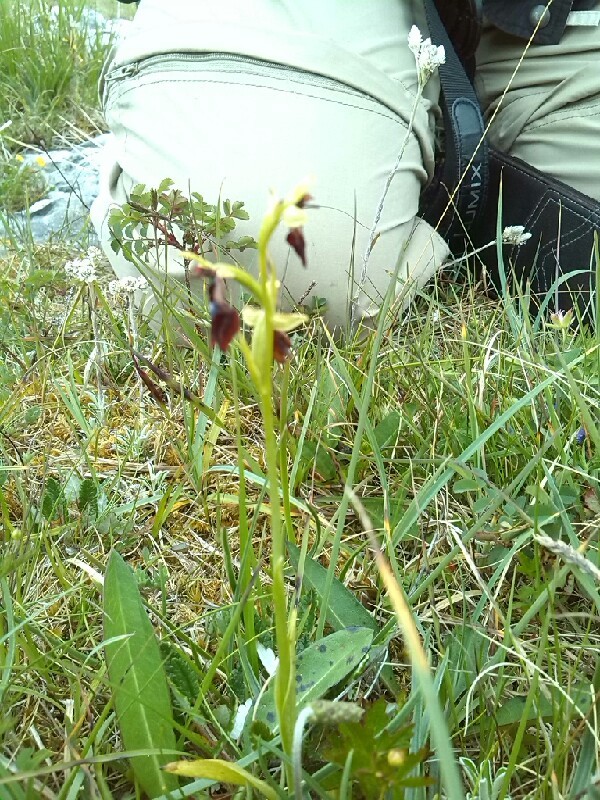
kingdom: Plantae
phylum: Tracheophyta
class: Liliopsida
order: Asparagales
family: Orchidaceae
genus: Ophrys
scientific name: Ophrys insectifera
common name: Fly orchid
